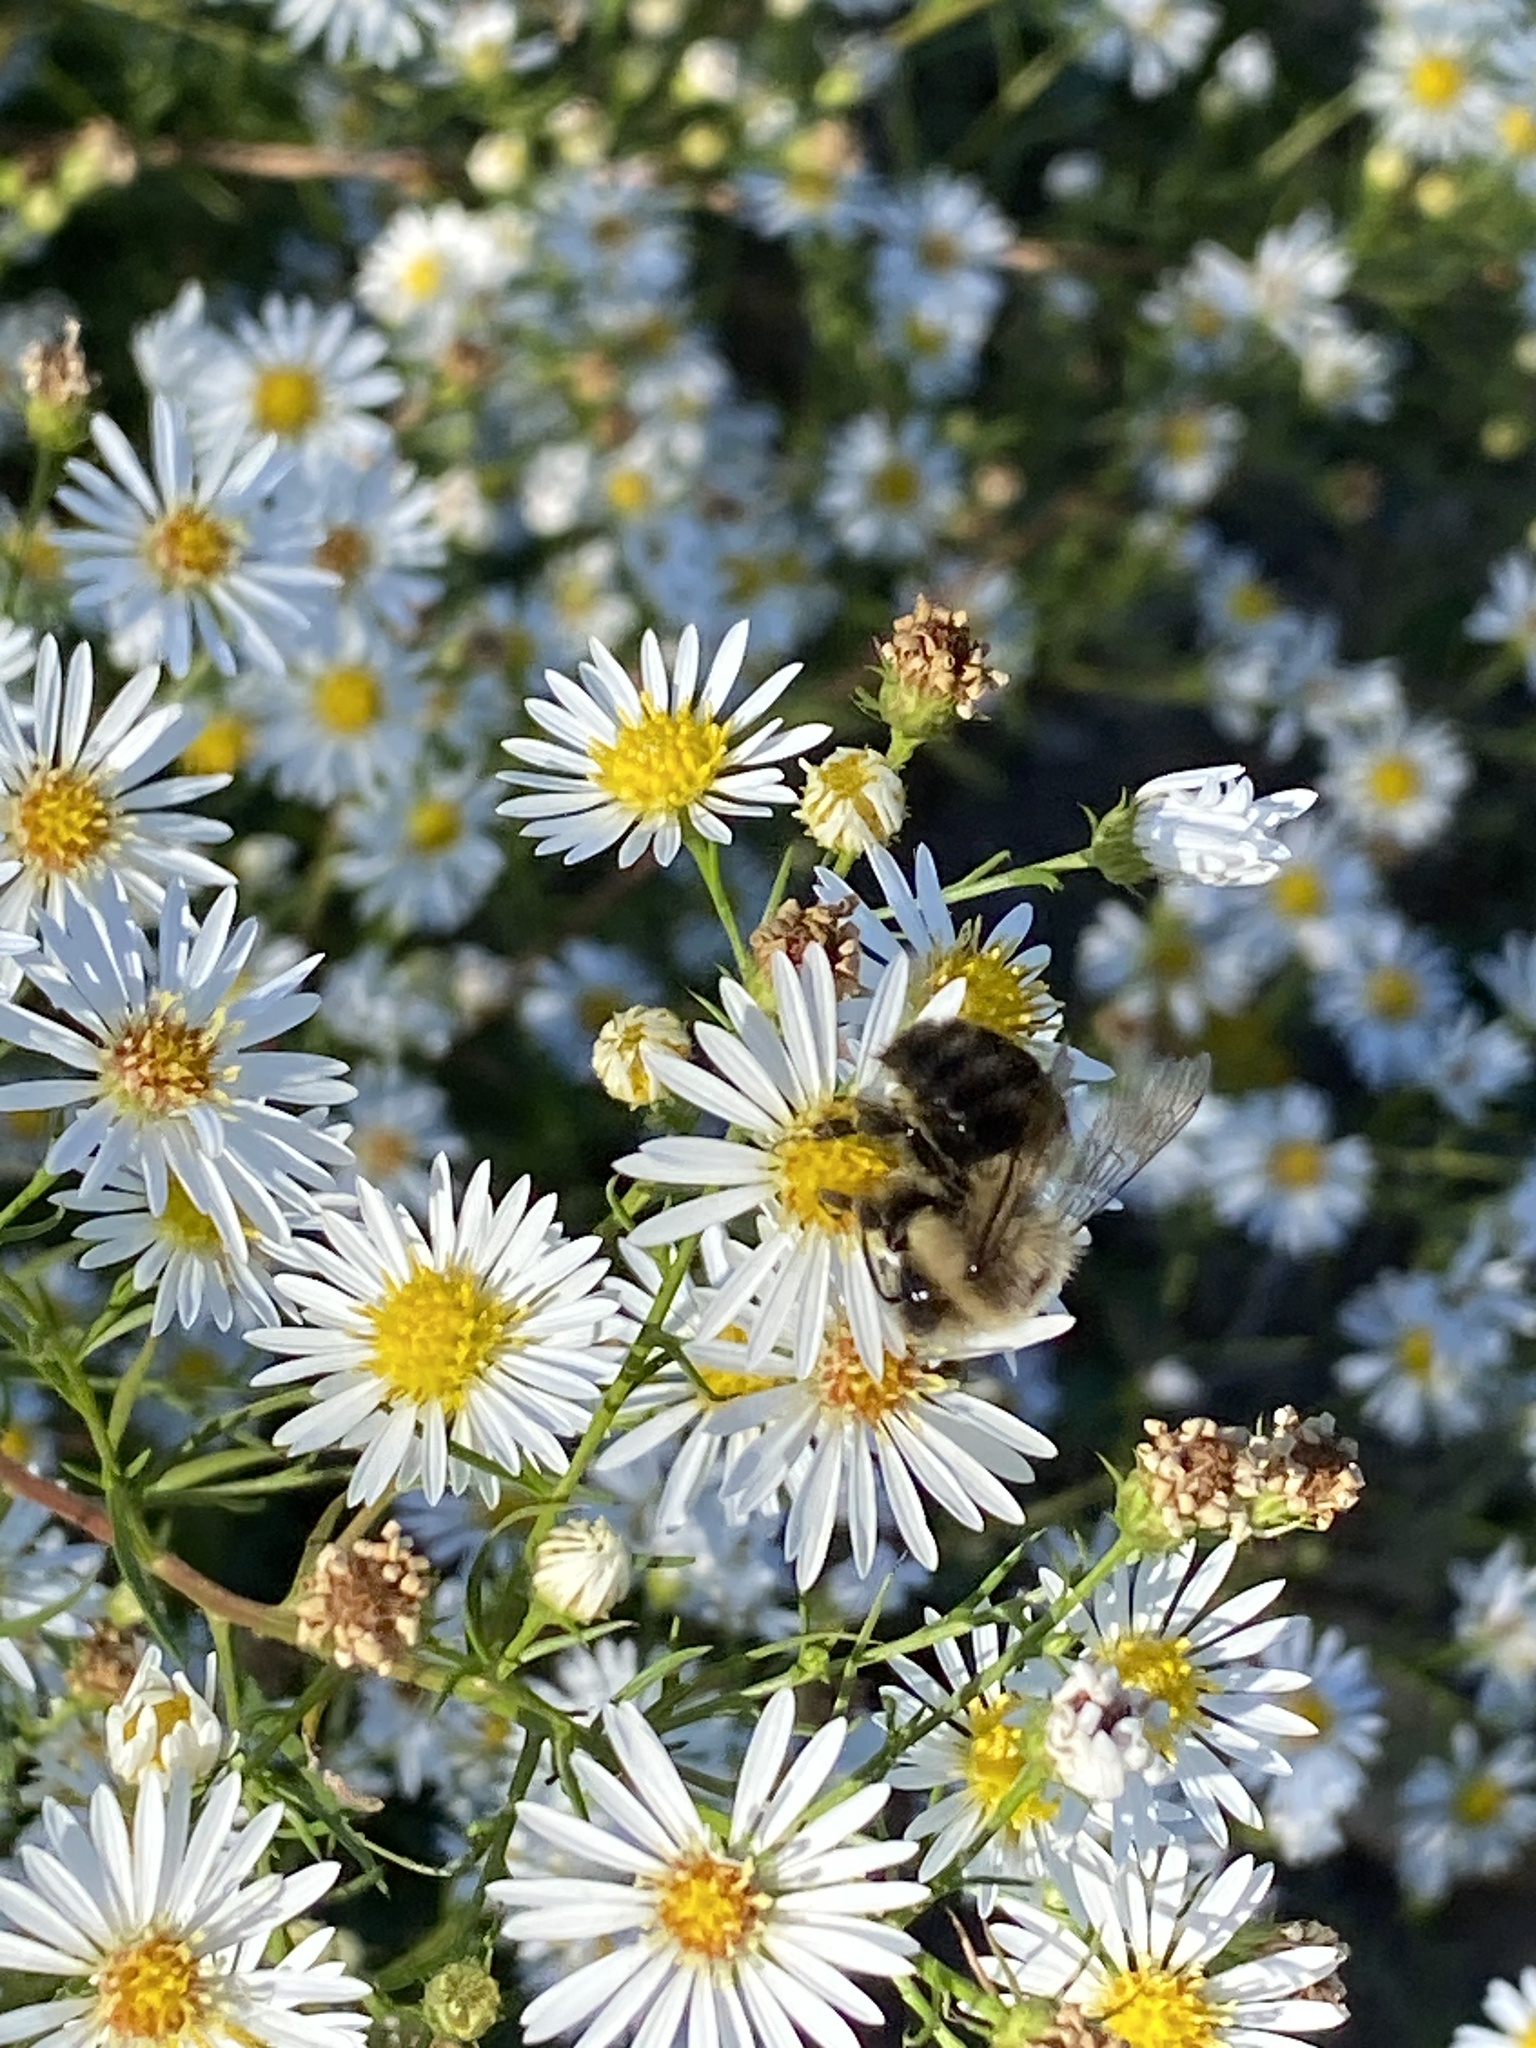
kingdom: Animalia
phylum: Arthropoda
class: Insecta
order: Hymenoptera
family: Apidae
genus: Bombus
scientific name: Bombus impatiens
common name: Common eastern bumble bee
